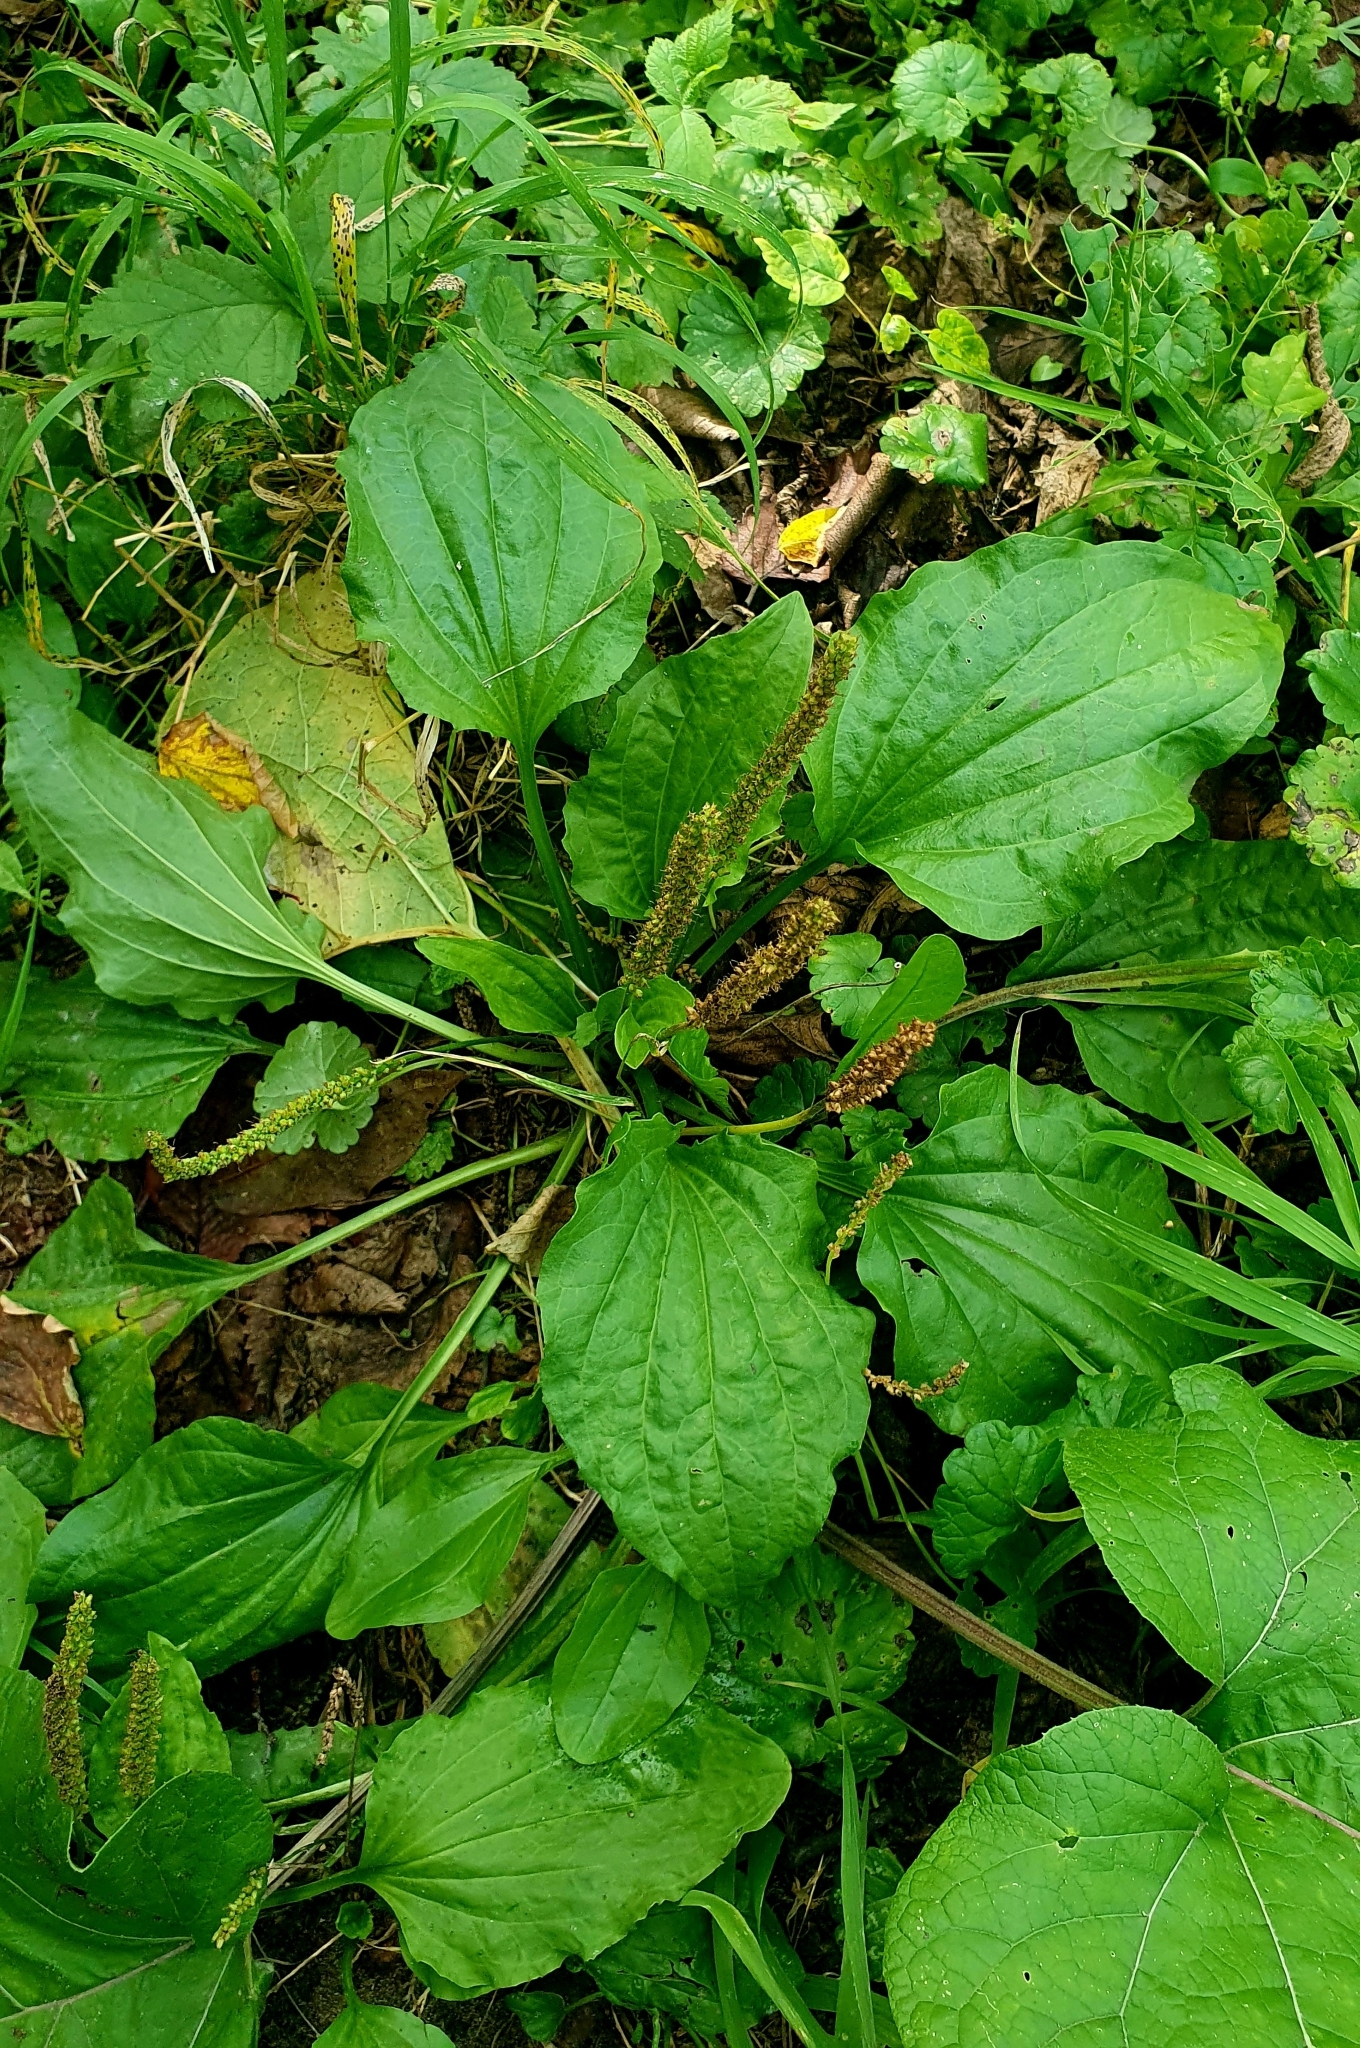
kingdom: Plantae
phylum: Tracheophyta
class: Magnoliopsida
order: Lamiales
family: Plantaginaceae
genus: Plantago
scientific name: Plantago major
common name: Common plantain
